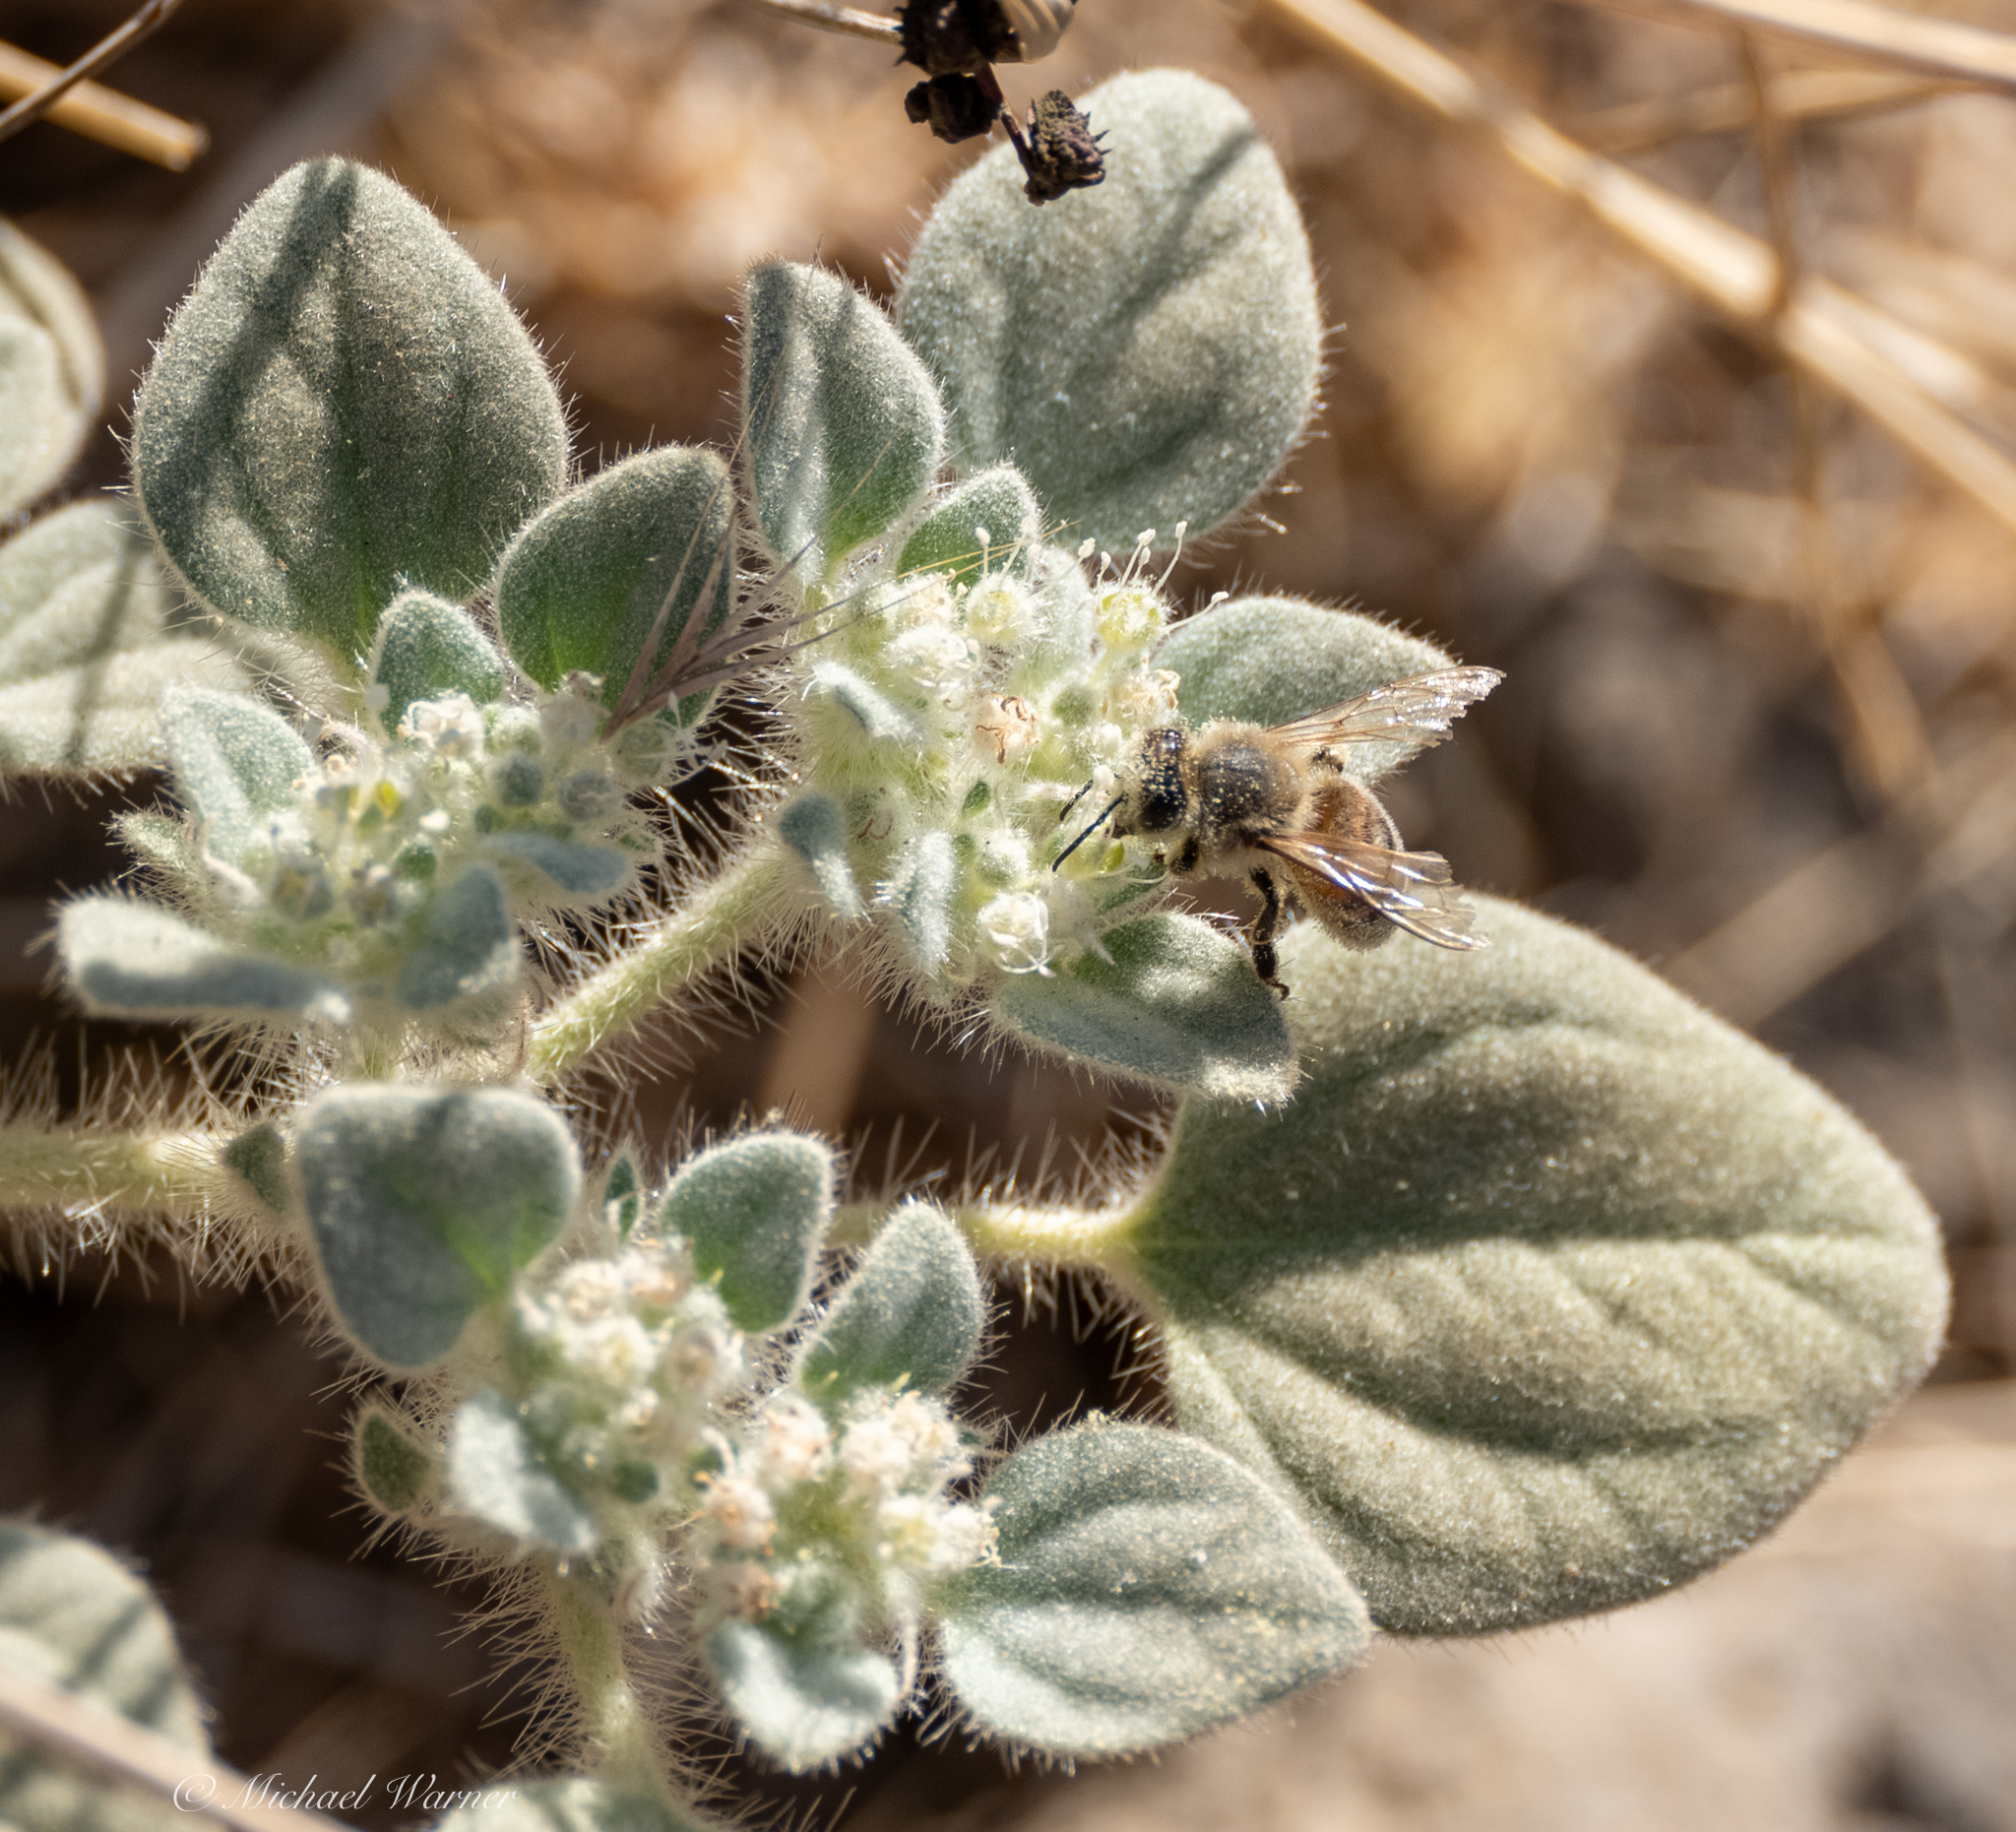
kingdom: Plantae
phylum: Tracheophyta
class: Magnoliopsida
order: Malpighiales
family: Euphorbiaceae
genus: Croton
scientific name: Croton setiger
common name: Dove weed
